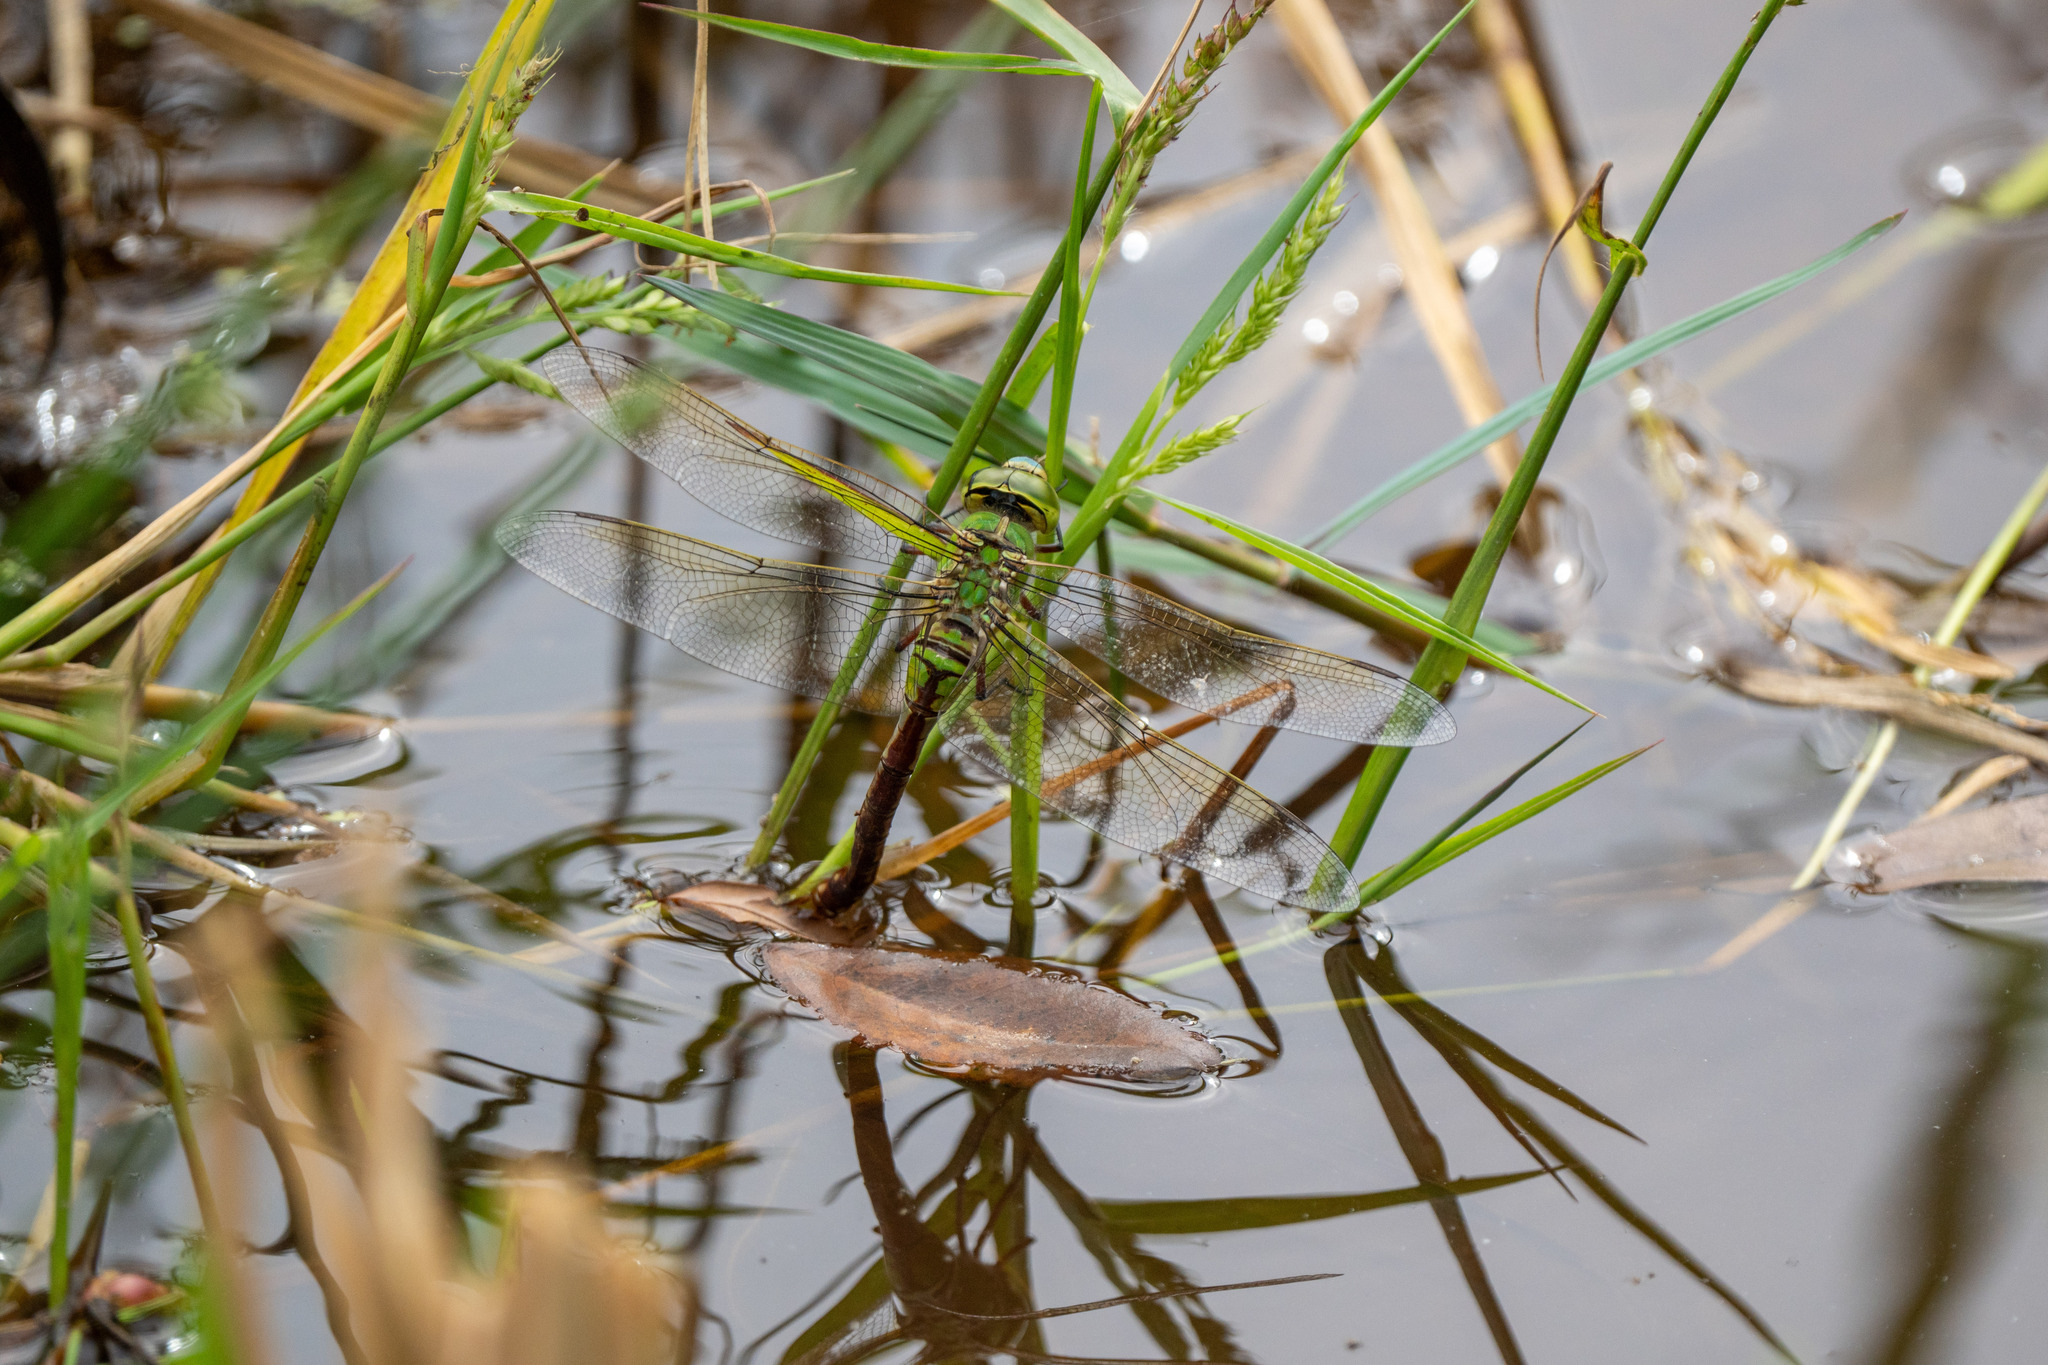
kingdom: Animalia
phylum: Arthropoda
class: Insecta
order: Odonata
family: Aeshnidae
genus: Anax
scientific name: Anax julius
